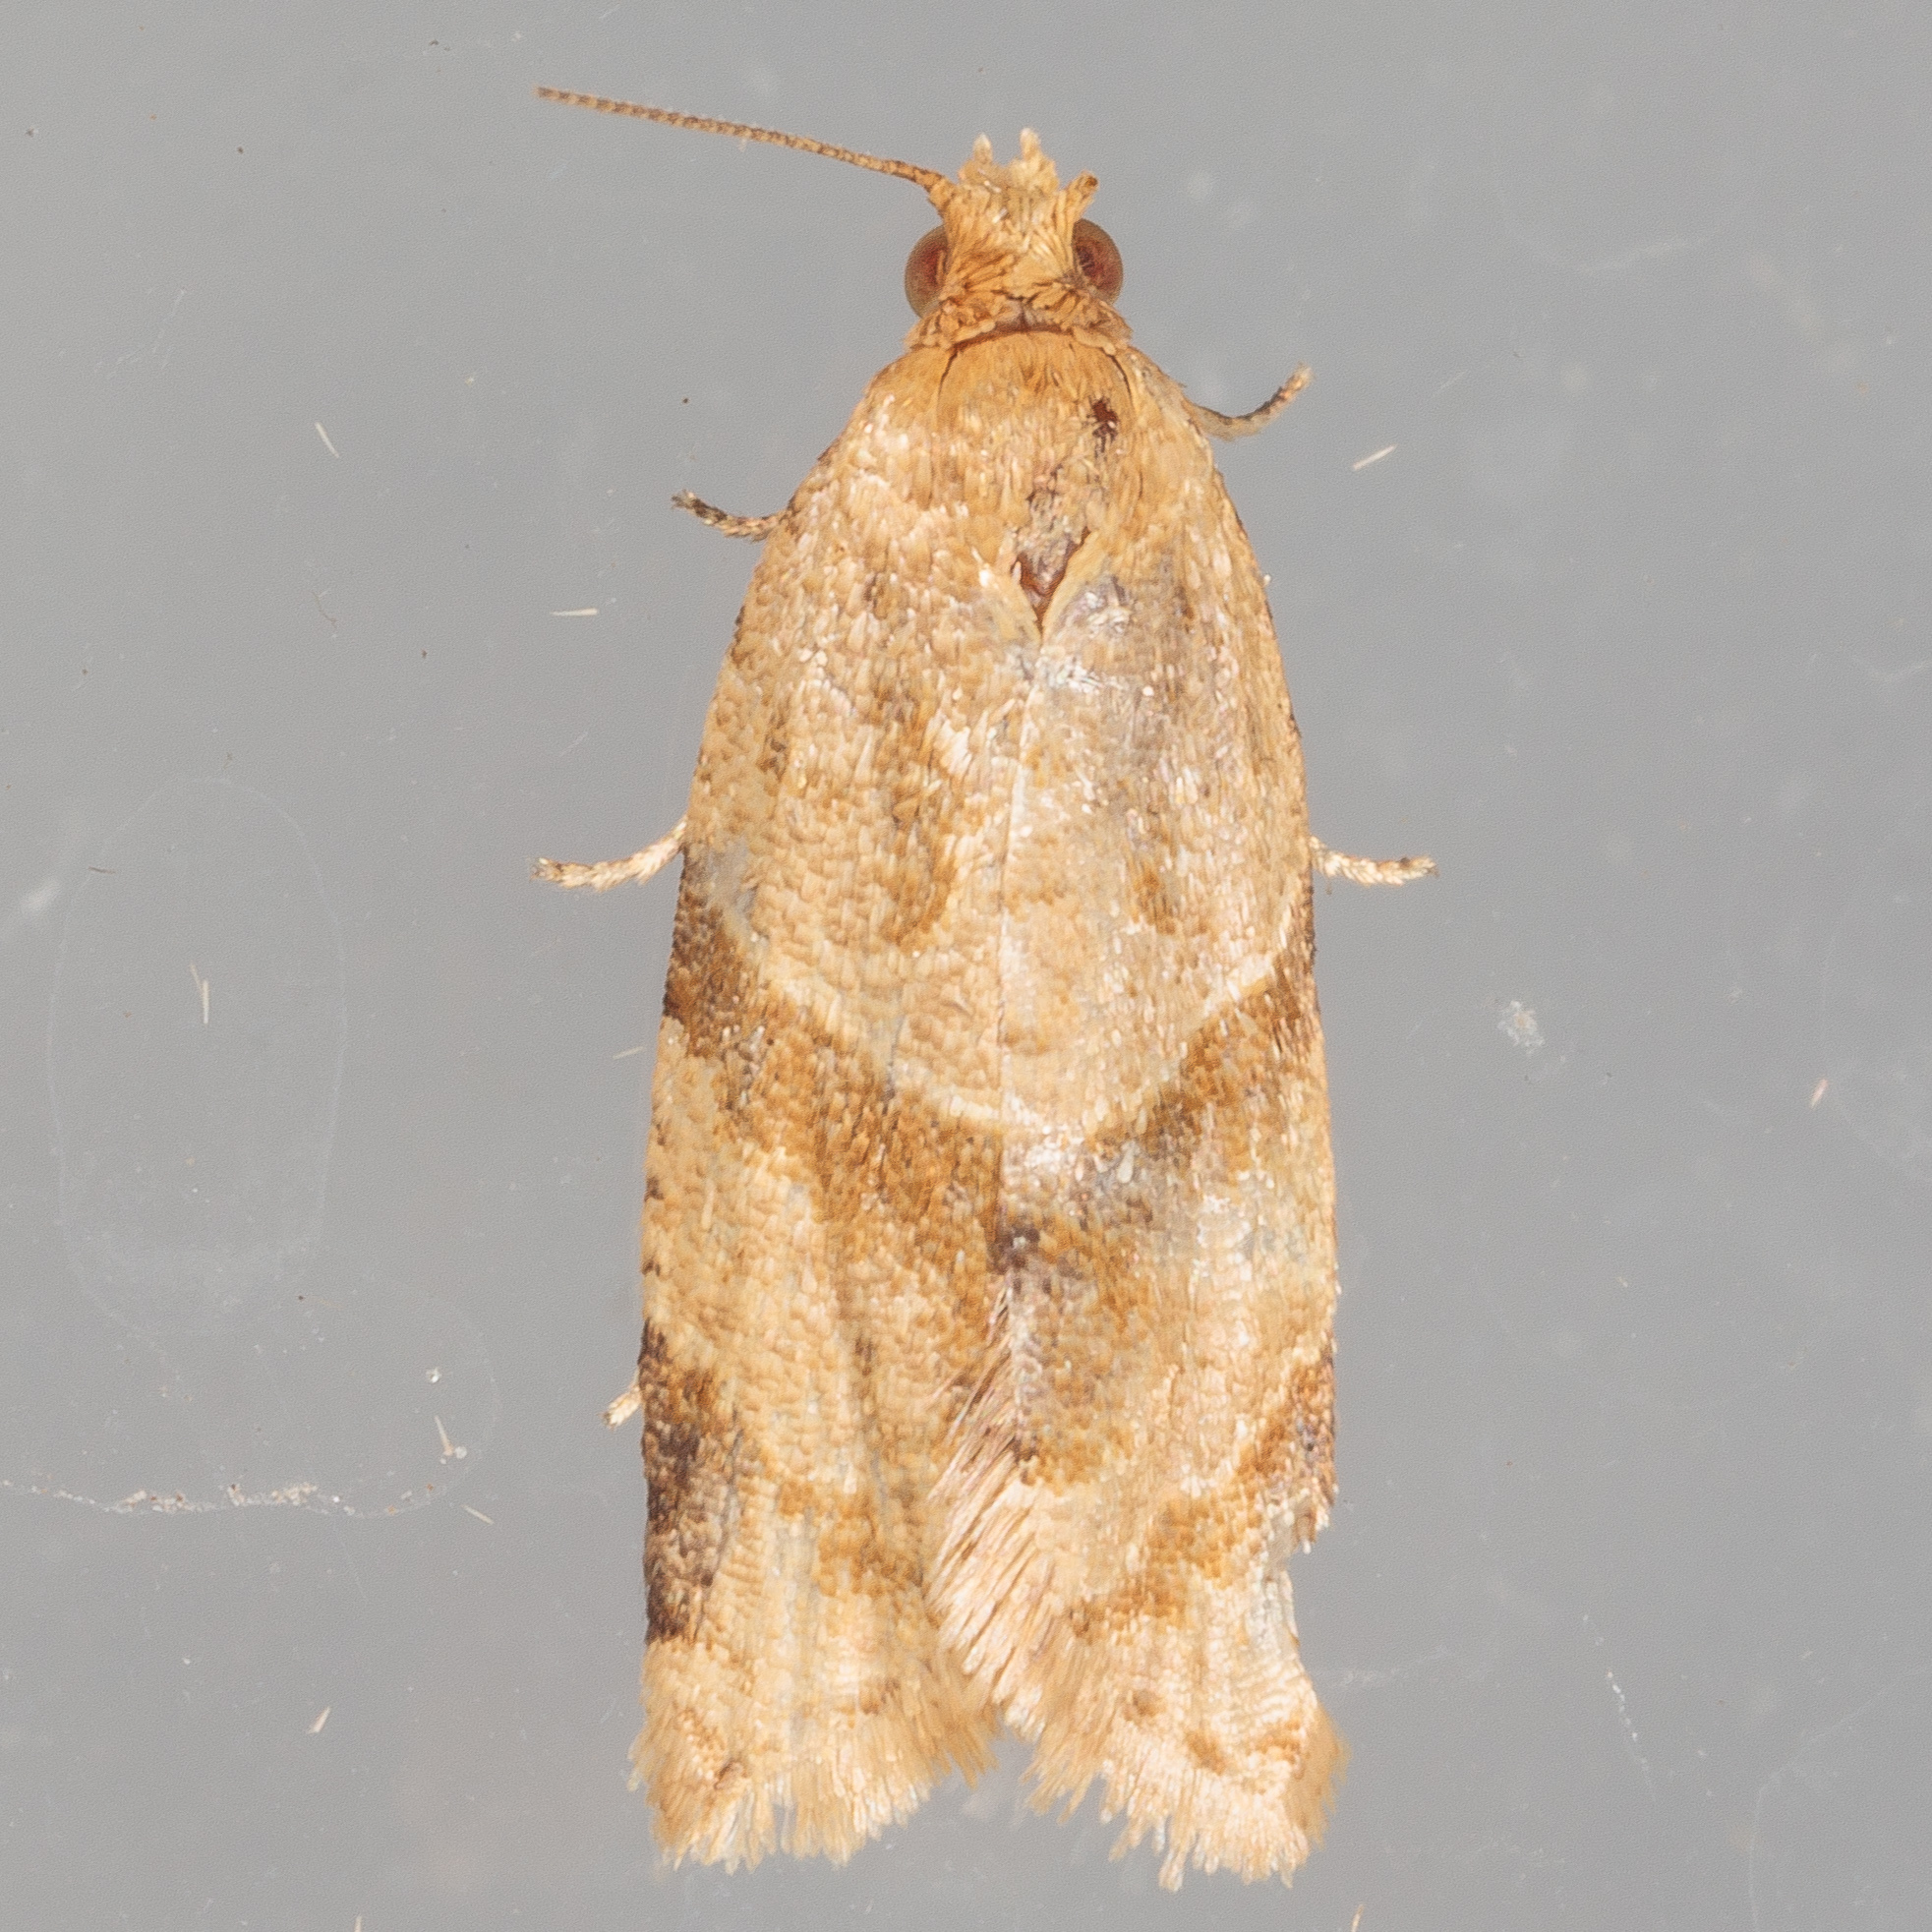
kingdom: Animalia
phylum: Arthropoda
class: Insecta
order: Lepidoptera
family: Tortricidae
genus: Clepsis
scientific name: Clepsis peritana
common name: Garden tortrix
